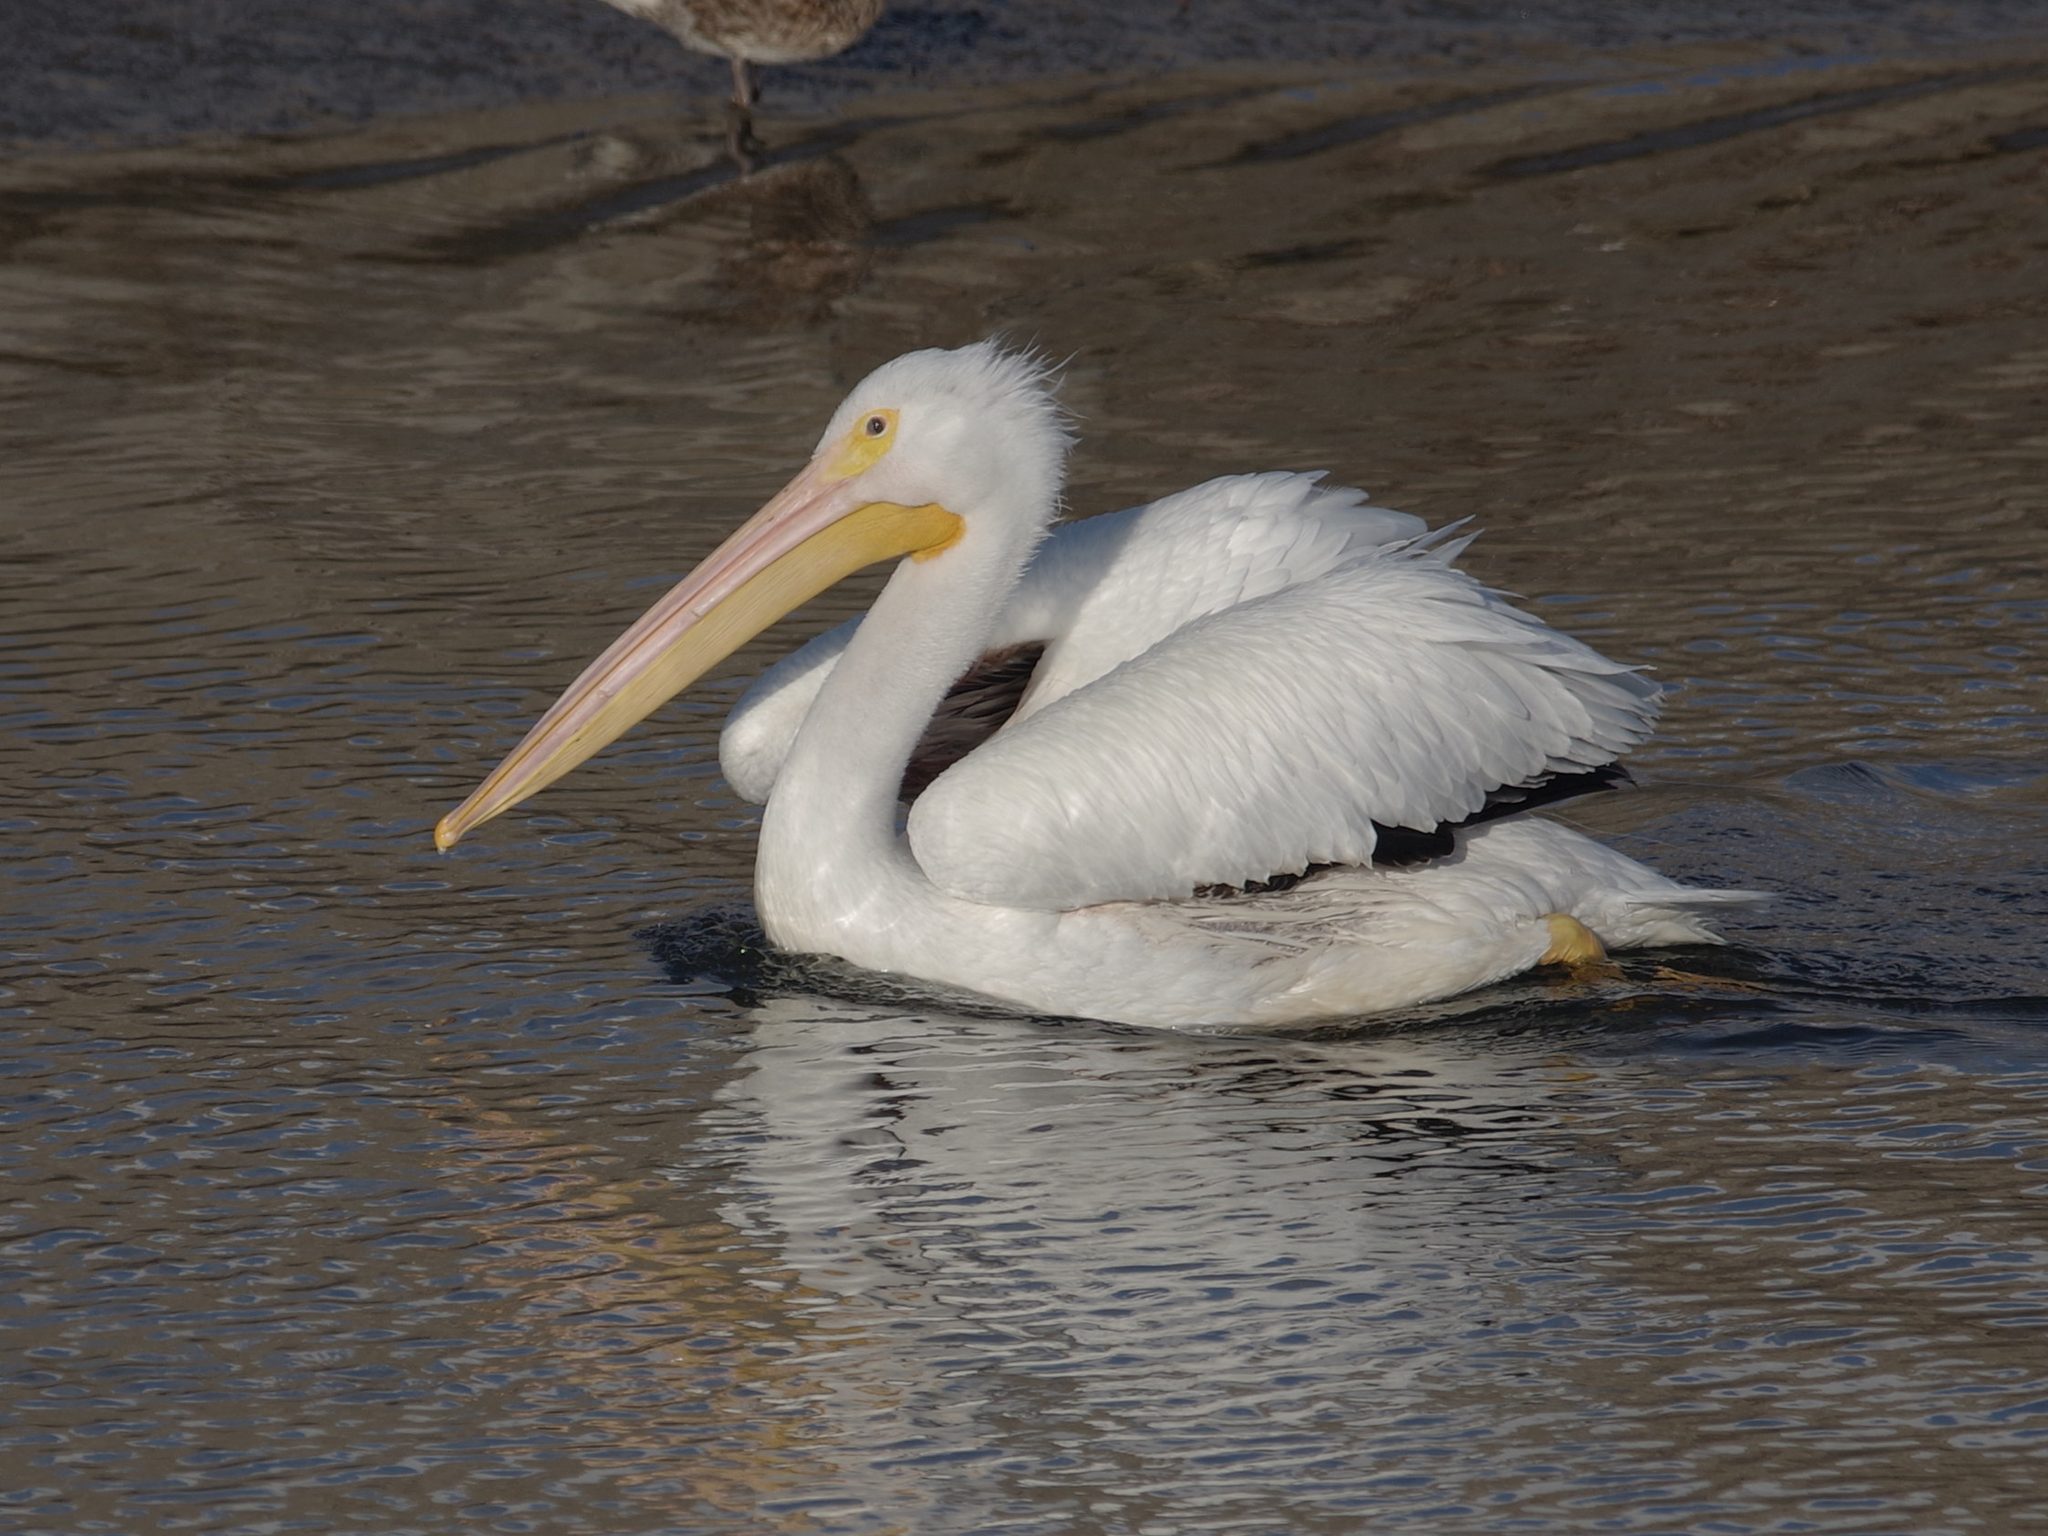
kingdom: Animalia
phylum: Chordata
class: Aves
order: Pelecaniformes
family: Pelecanidae
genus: Pelecanus
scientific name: Pelecanus erythrorhynchos
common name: American white pelican
